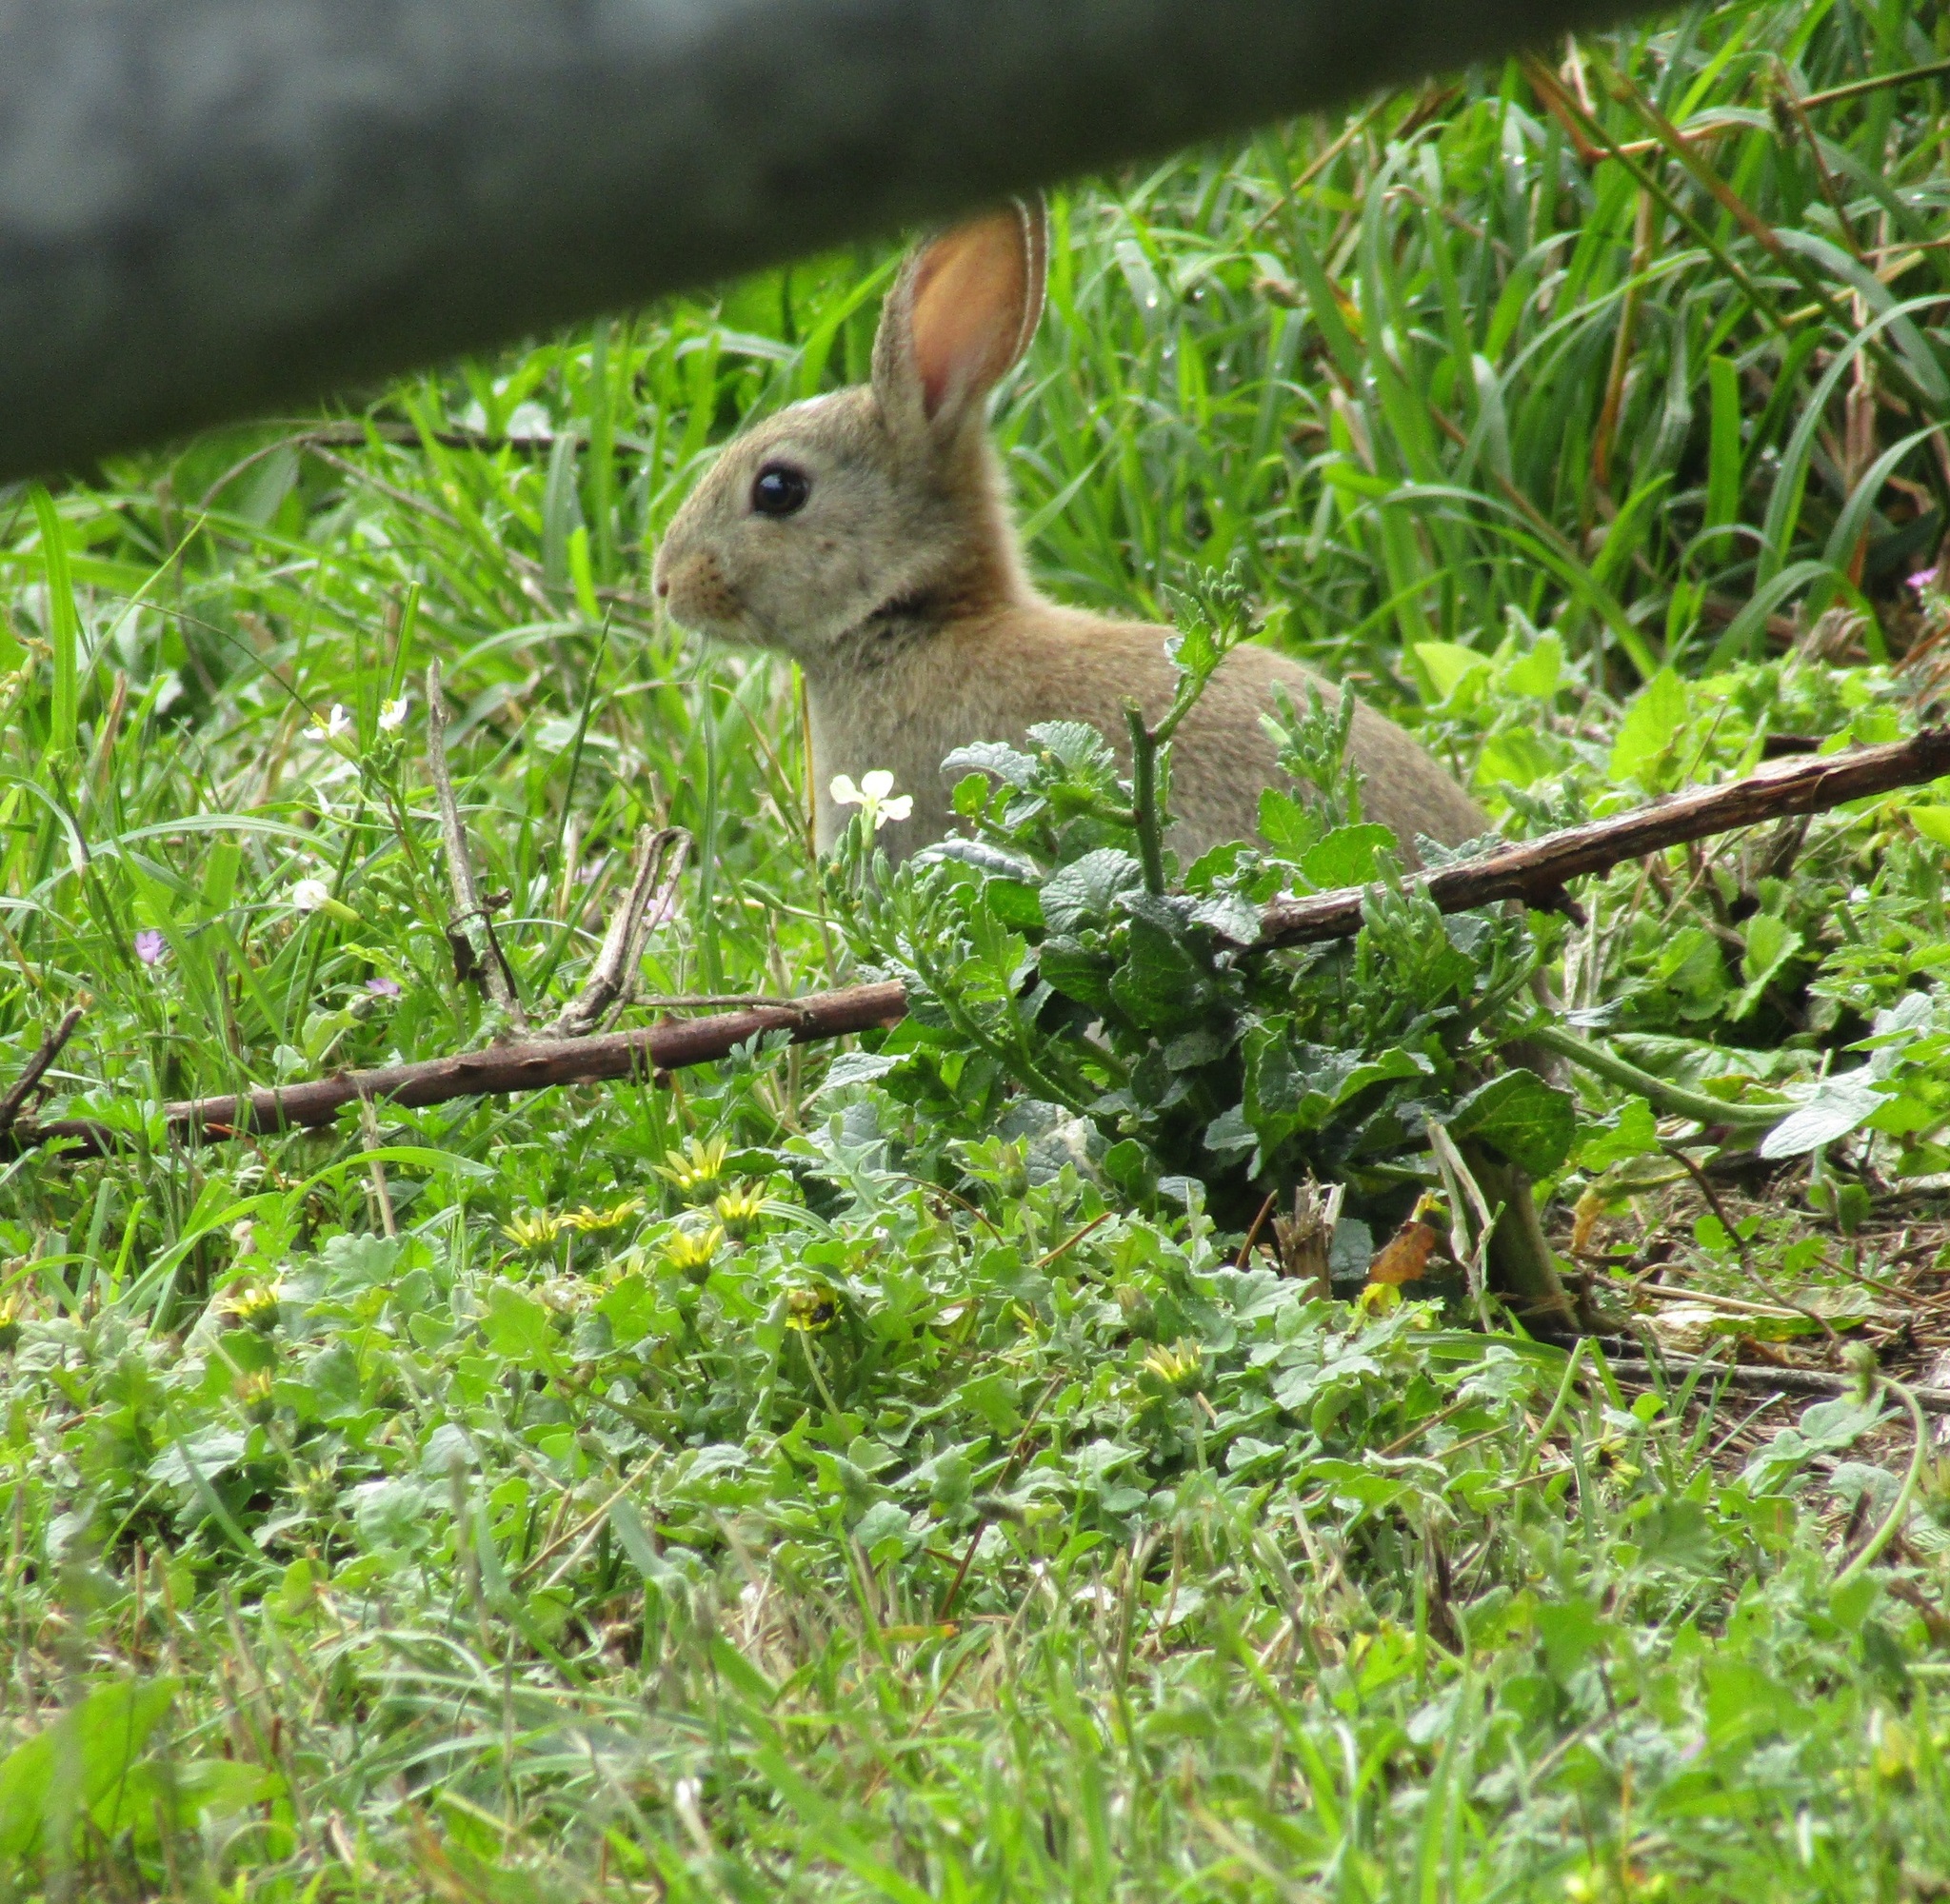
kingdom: Animalia
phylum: Chordata
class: Mammalia
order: Lagomorpha
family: Leporidae
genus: Oryctolagus
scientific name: Oryctolagus cuniculus
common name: European rabbit
